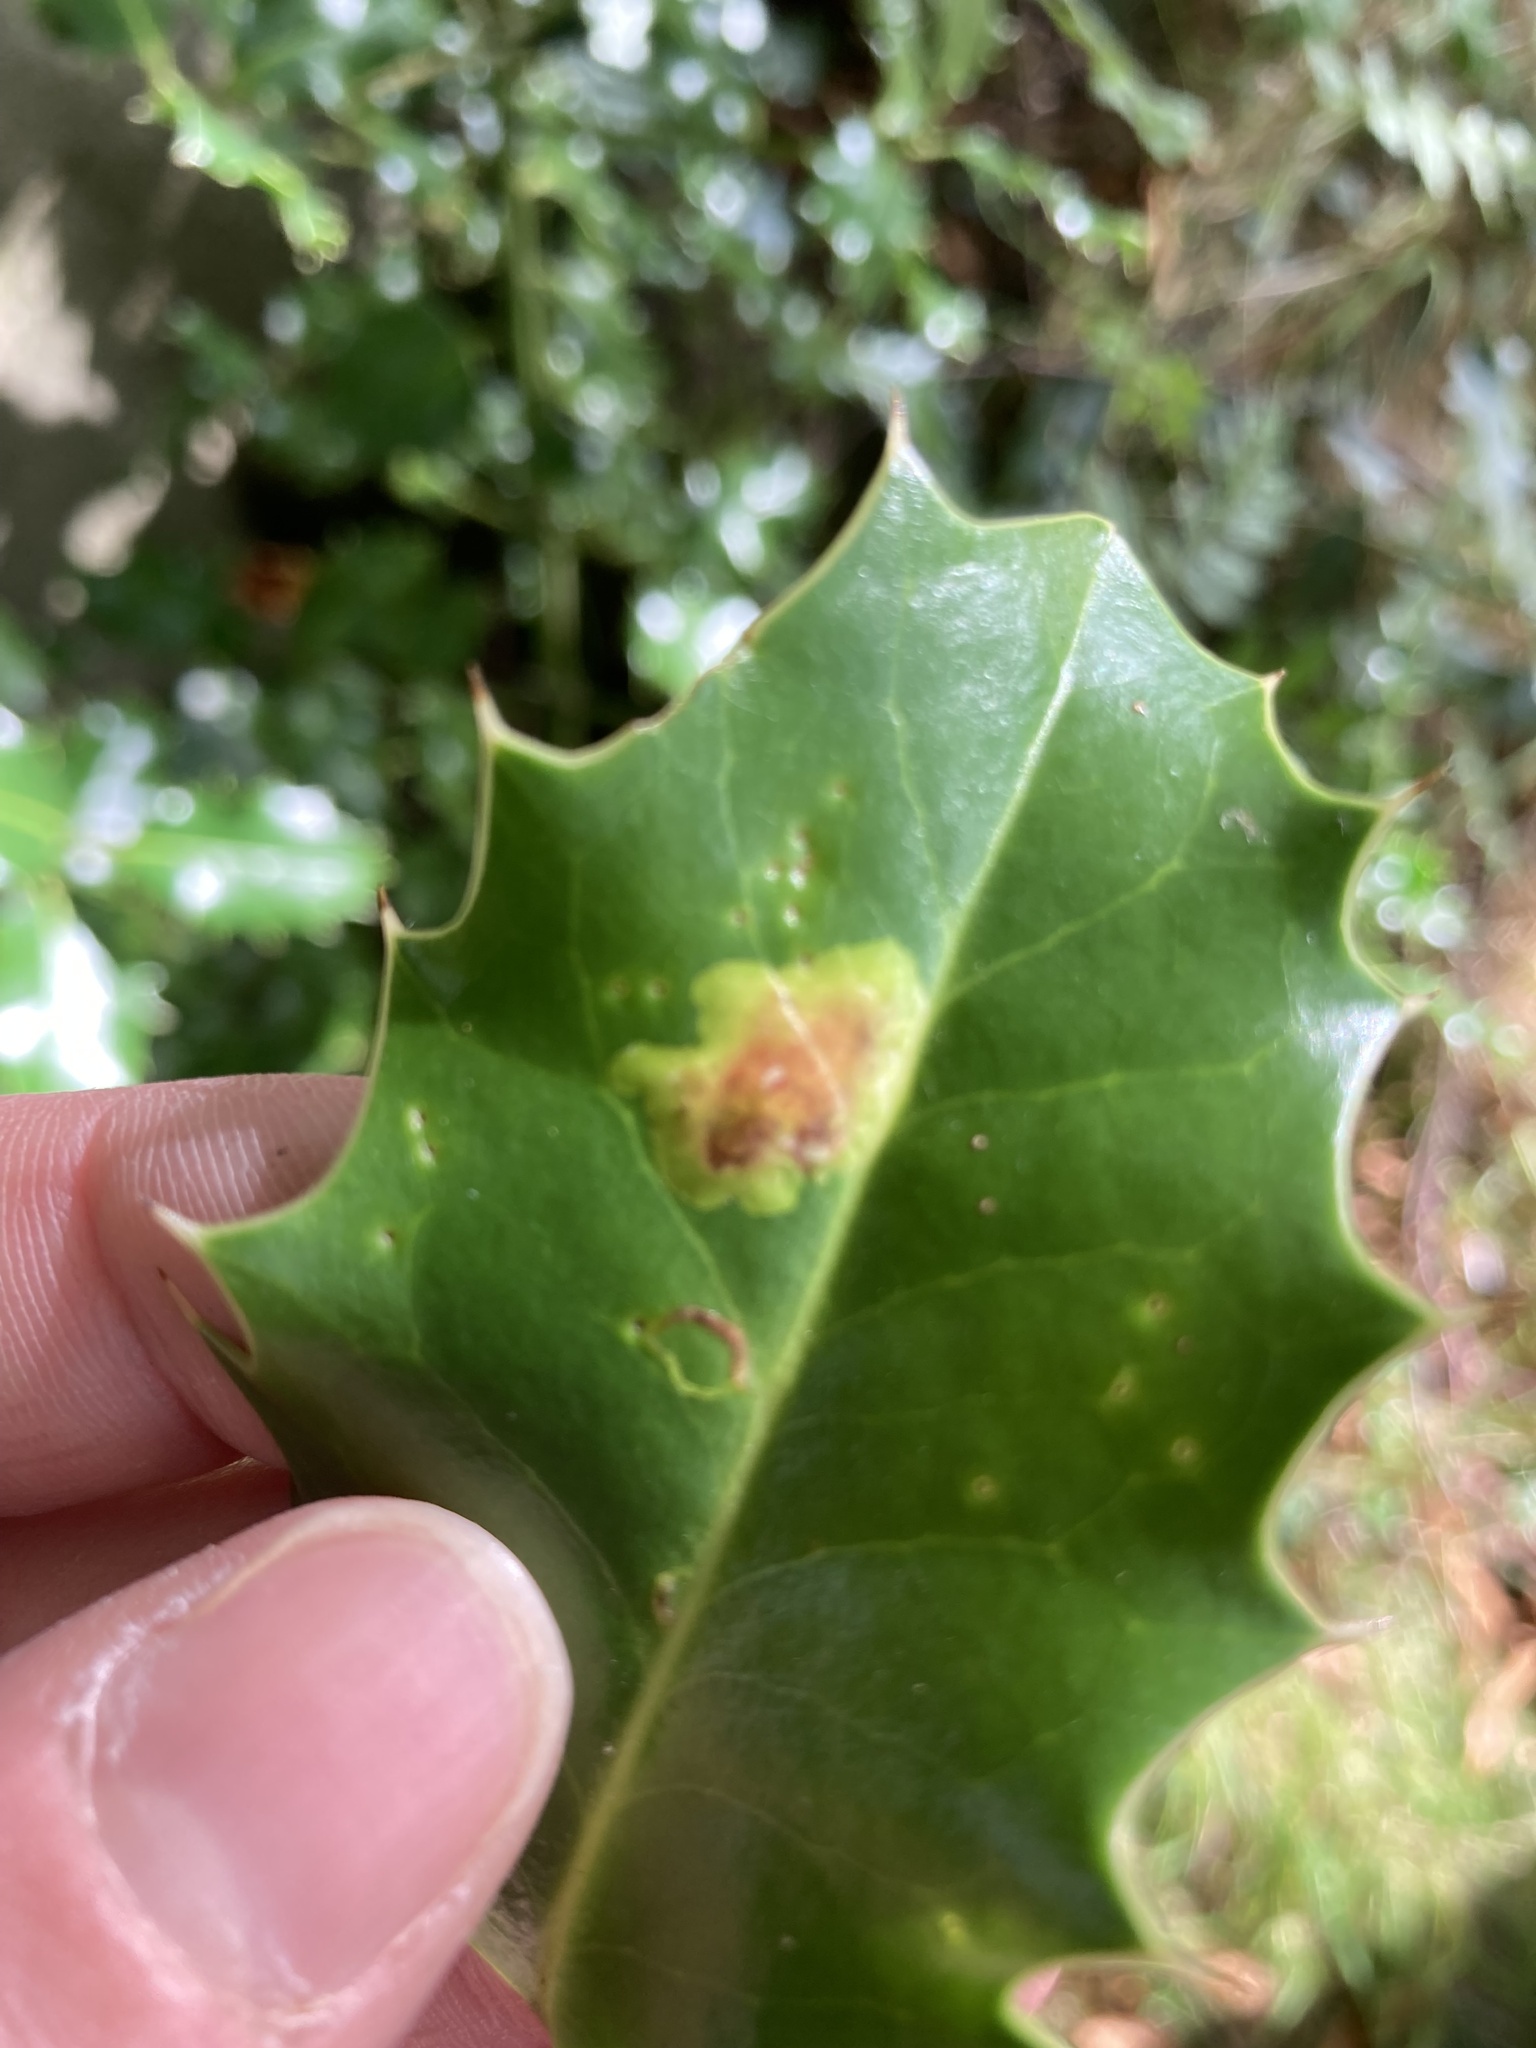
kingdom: Animalia
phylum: Arthropoda
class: Insecta
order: Diptera
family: Agromyzidae
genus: Phytomyza
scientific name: Phytomyza ilicis
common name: Holly leafminer
